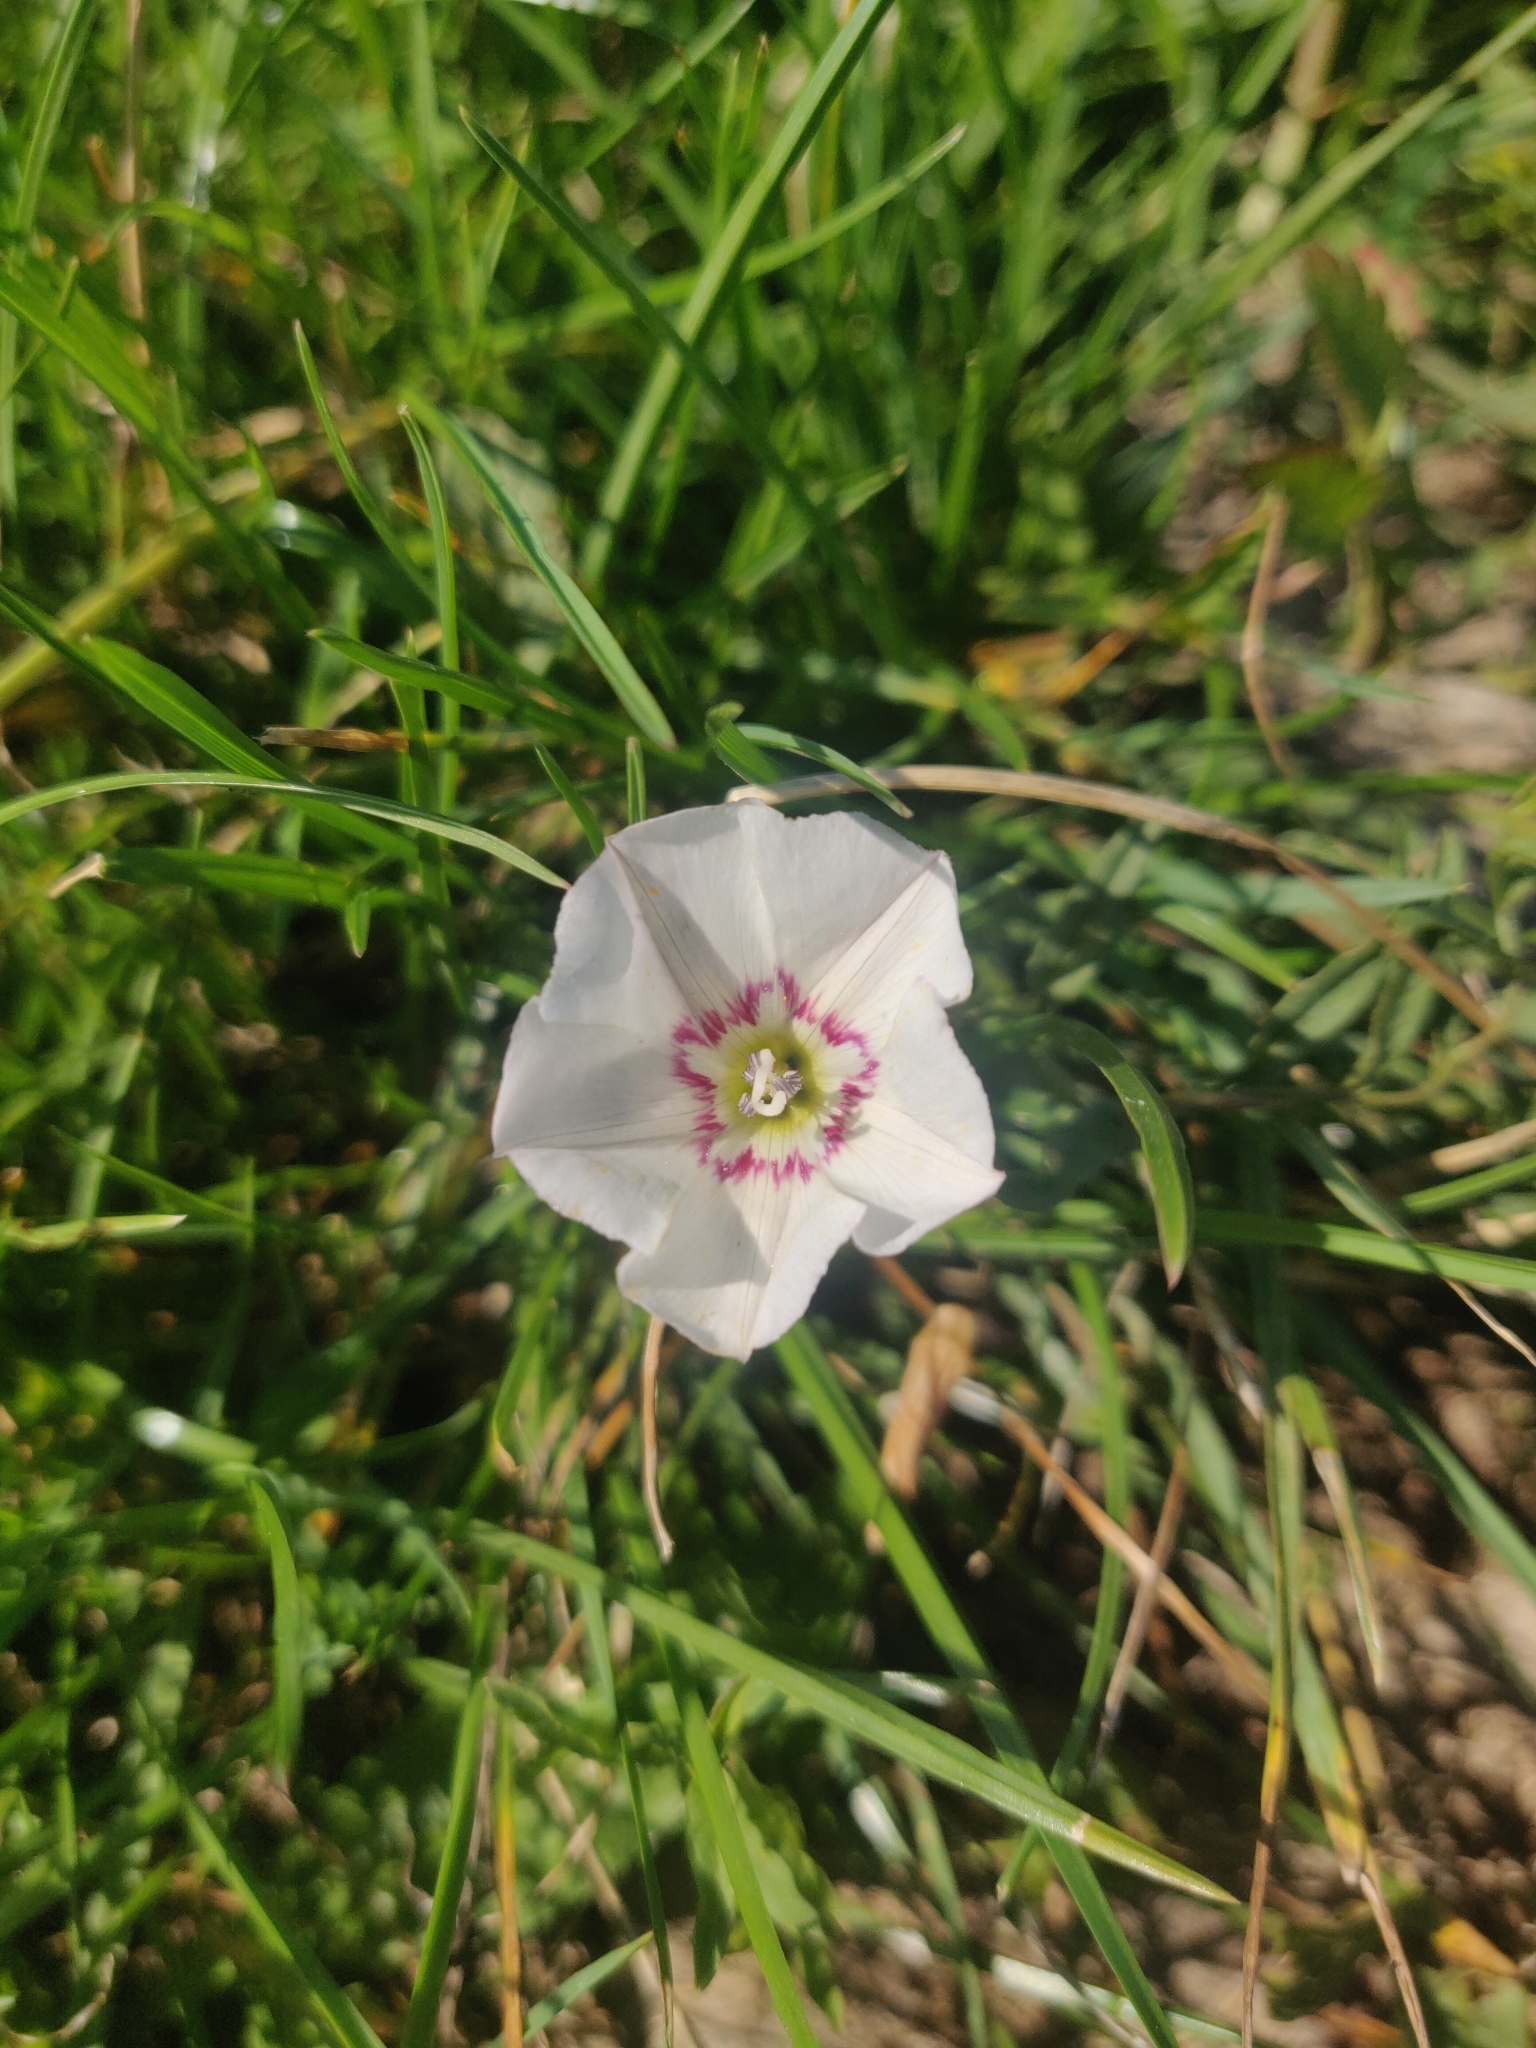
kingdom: Plantae
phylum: Tracheophyta
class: Magnoliopsida
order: Solanales
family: Convolvulaceae
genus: Convolvulus
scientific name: Convolvulus arvensis
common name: Field bindweed
